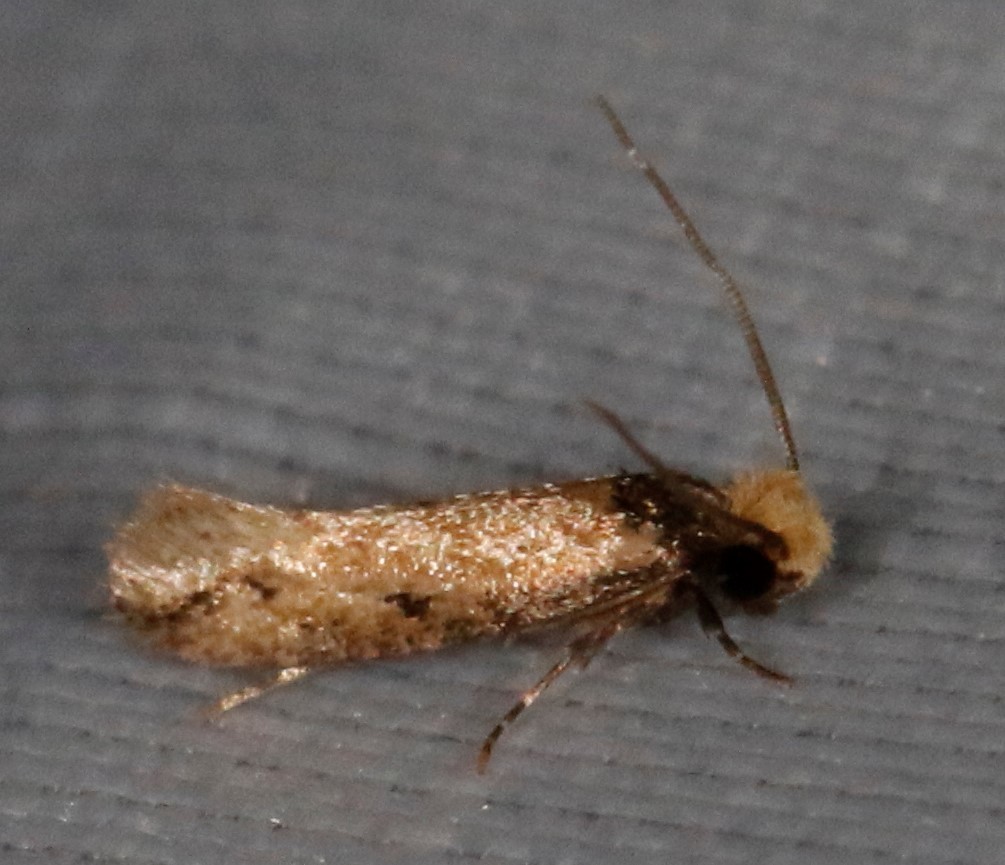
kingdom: Animalia
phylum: Arthropoda
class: Insecta
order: Lepidoptera
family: Meessiidae
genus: Homostinea
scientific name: Homostinea curviliniella
